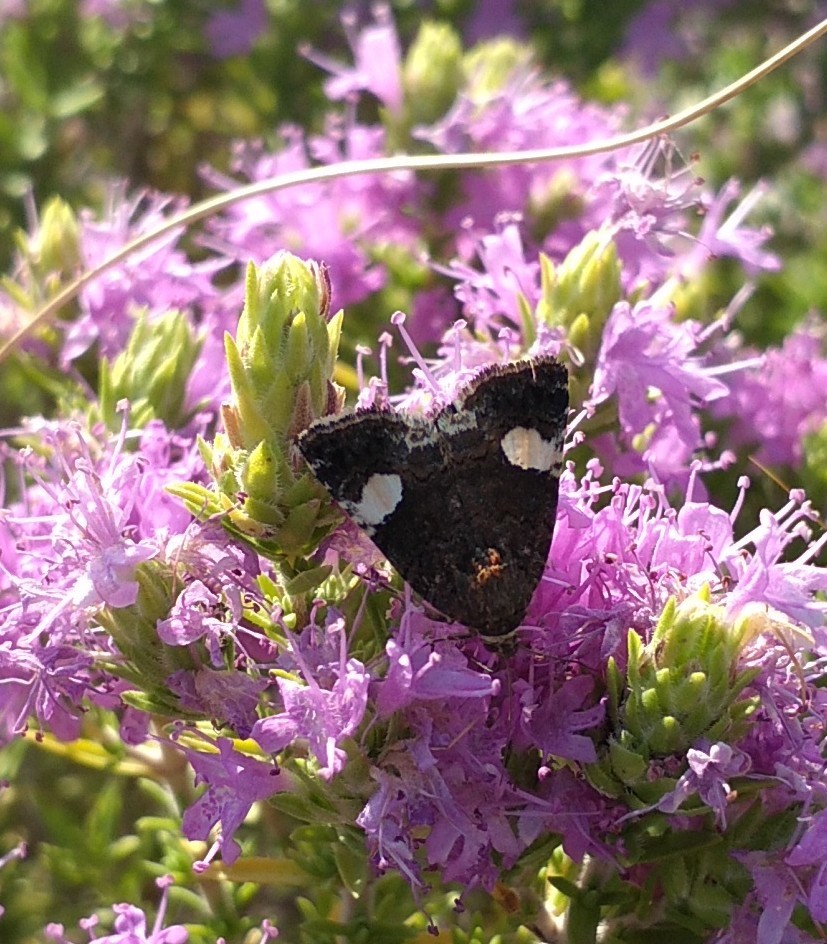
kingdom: Animalia
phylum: Arthropoda
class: Insecta
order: Lepidoptera
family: Erebidae
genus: Tyta
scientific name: Tyta luctuosa
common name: Four-spotted
